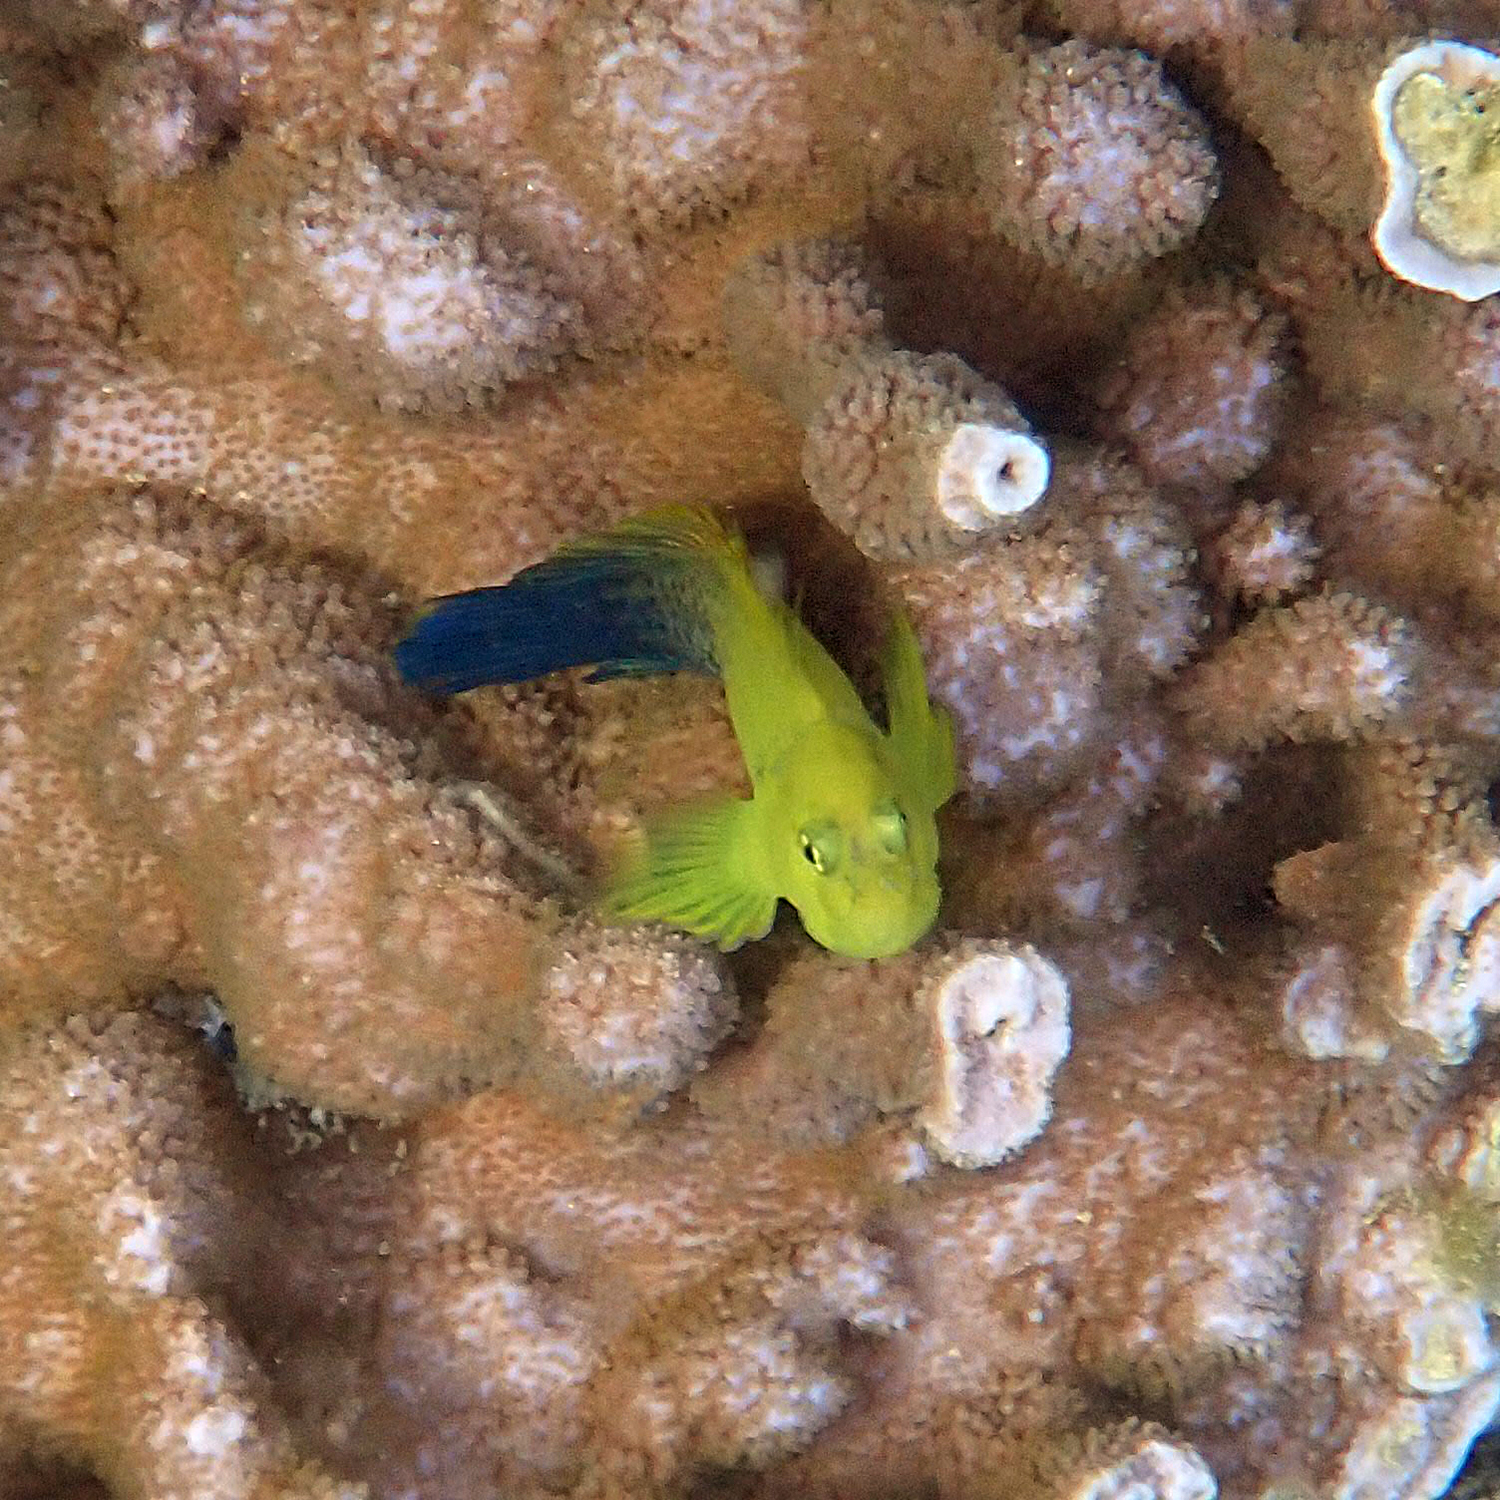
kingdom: Animalia
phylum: Chordata
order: Perciformes
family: Blenniidae
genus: Cirripectes
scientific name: Cirripectes chelomatus
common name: Lady musgrave blenny
